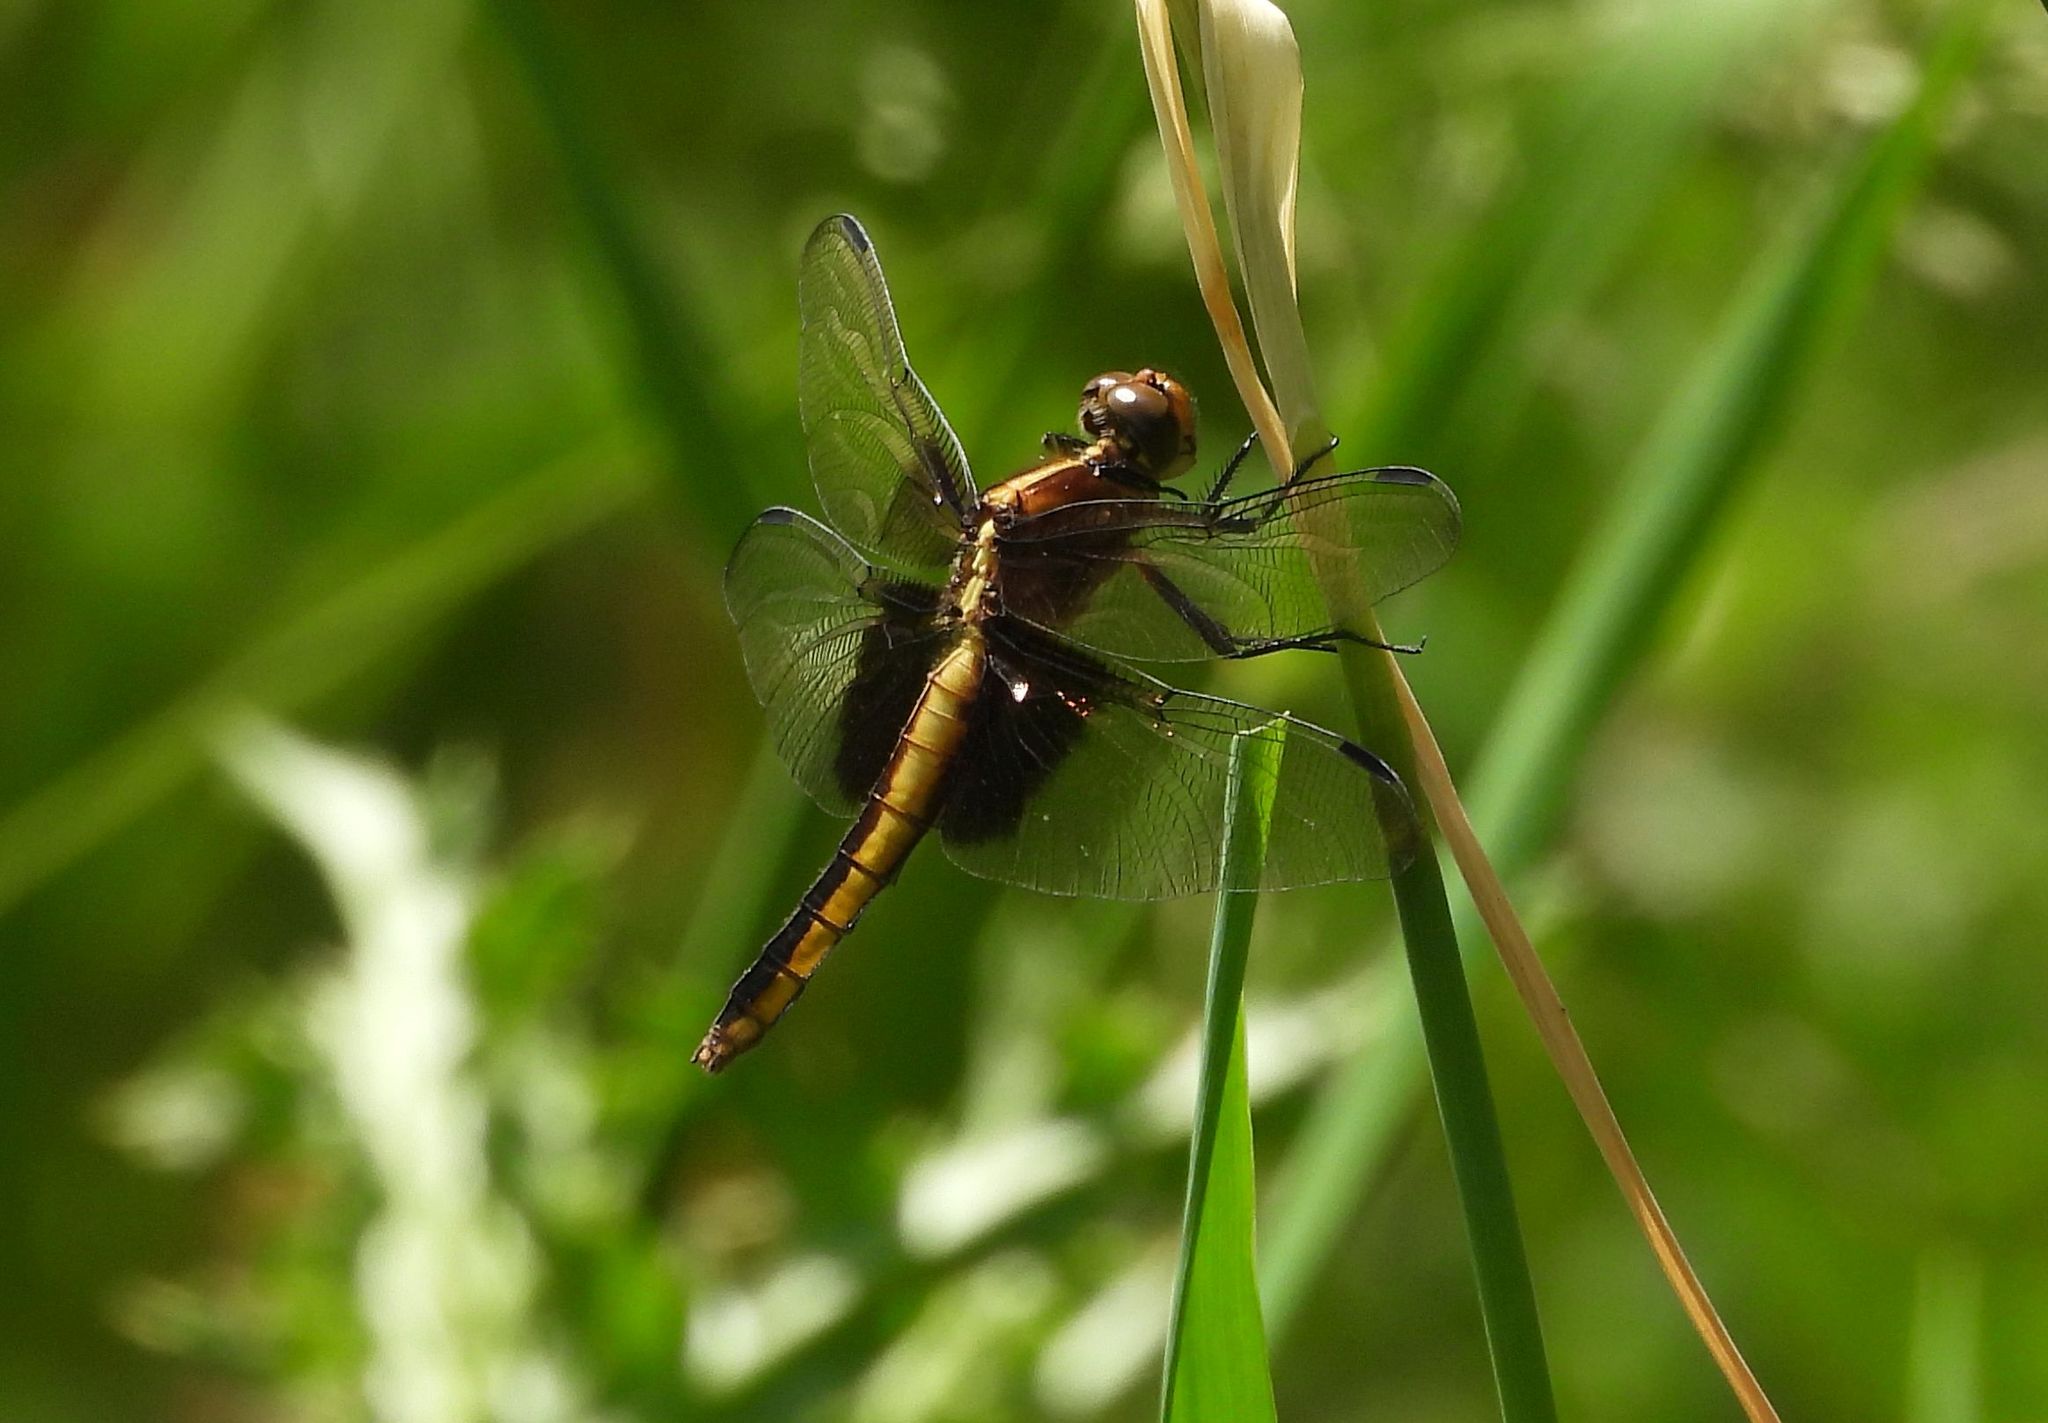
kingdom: Animalia
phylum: Arthropoda
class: Insecta
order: Odonata
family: Libellulidae
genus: Libellula
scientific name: Libellula luctuosa
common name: Widow skimmer
